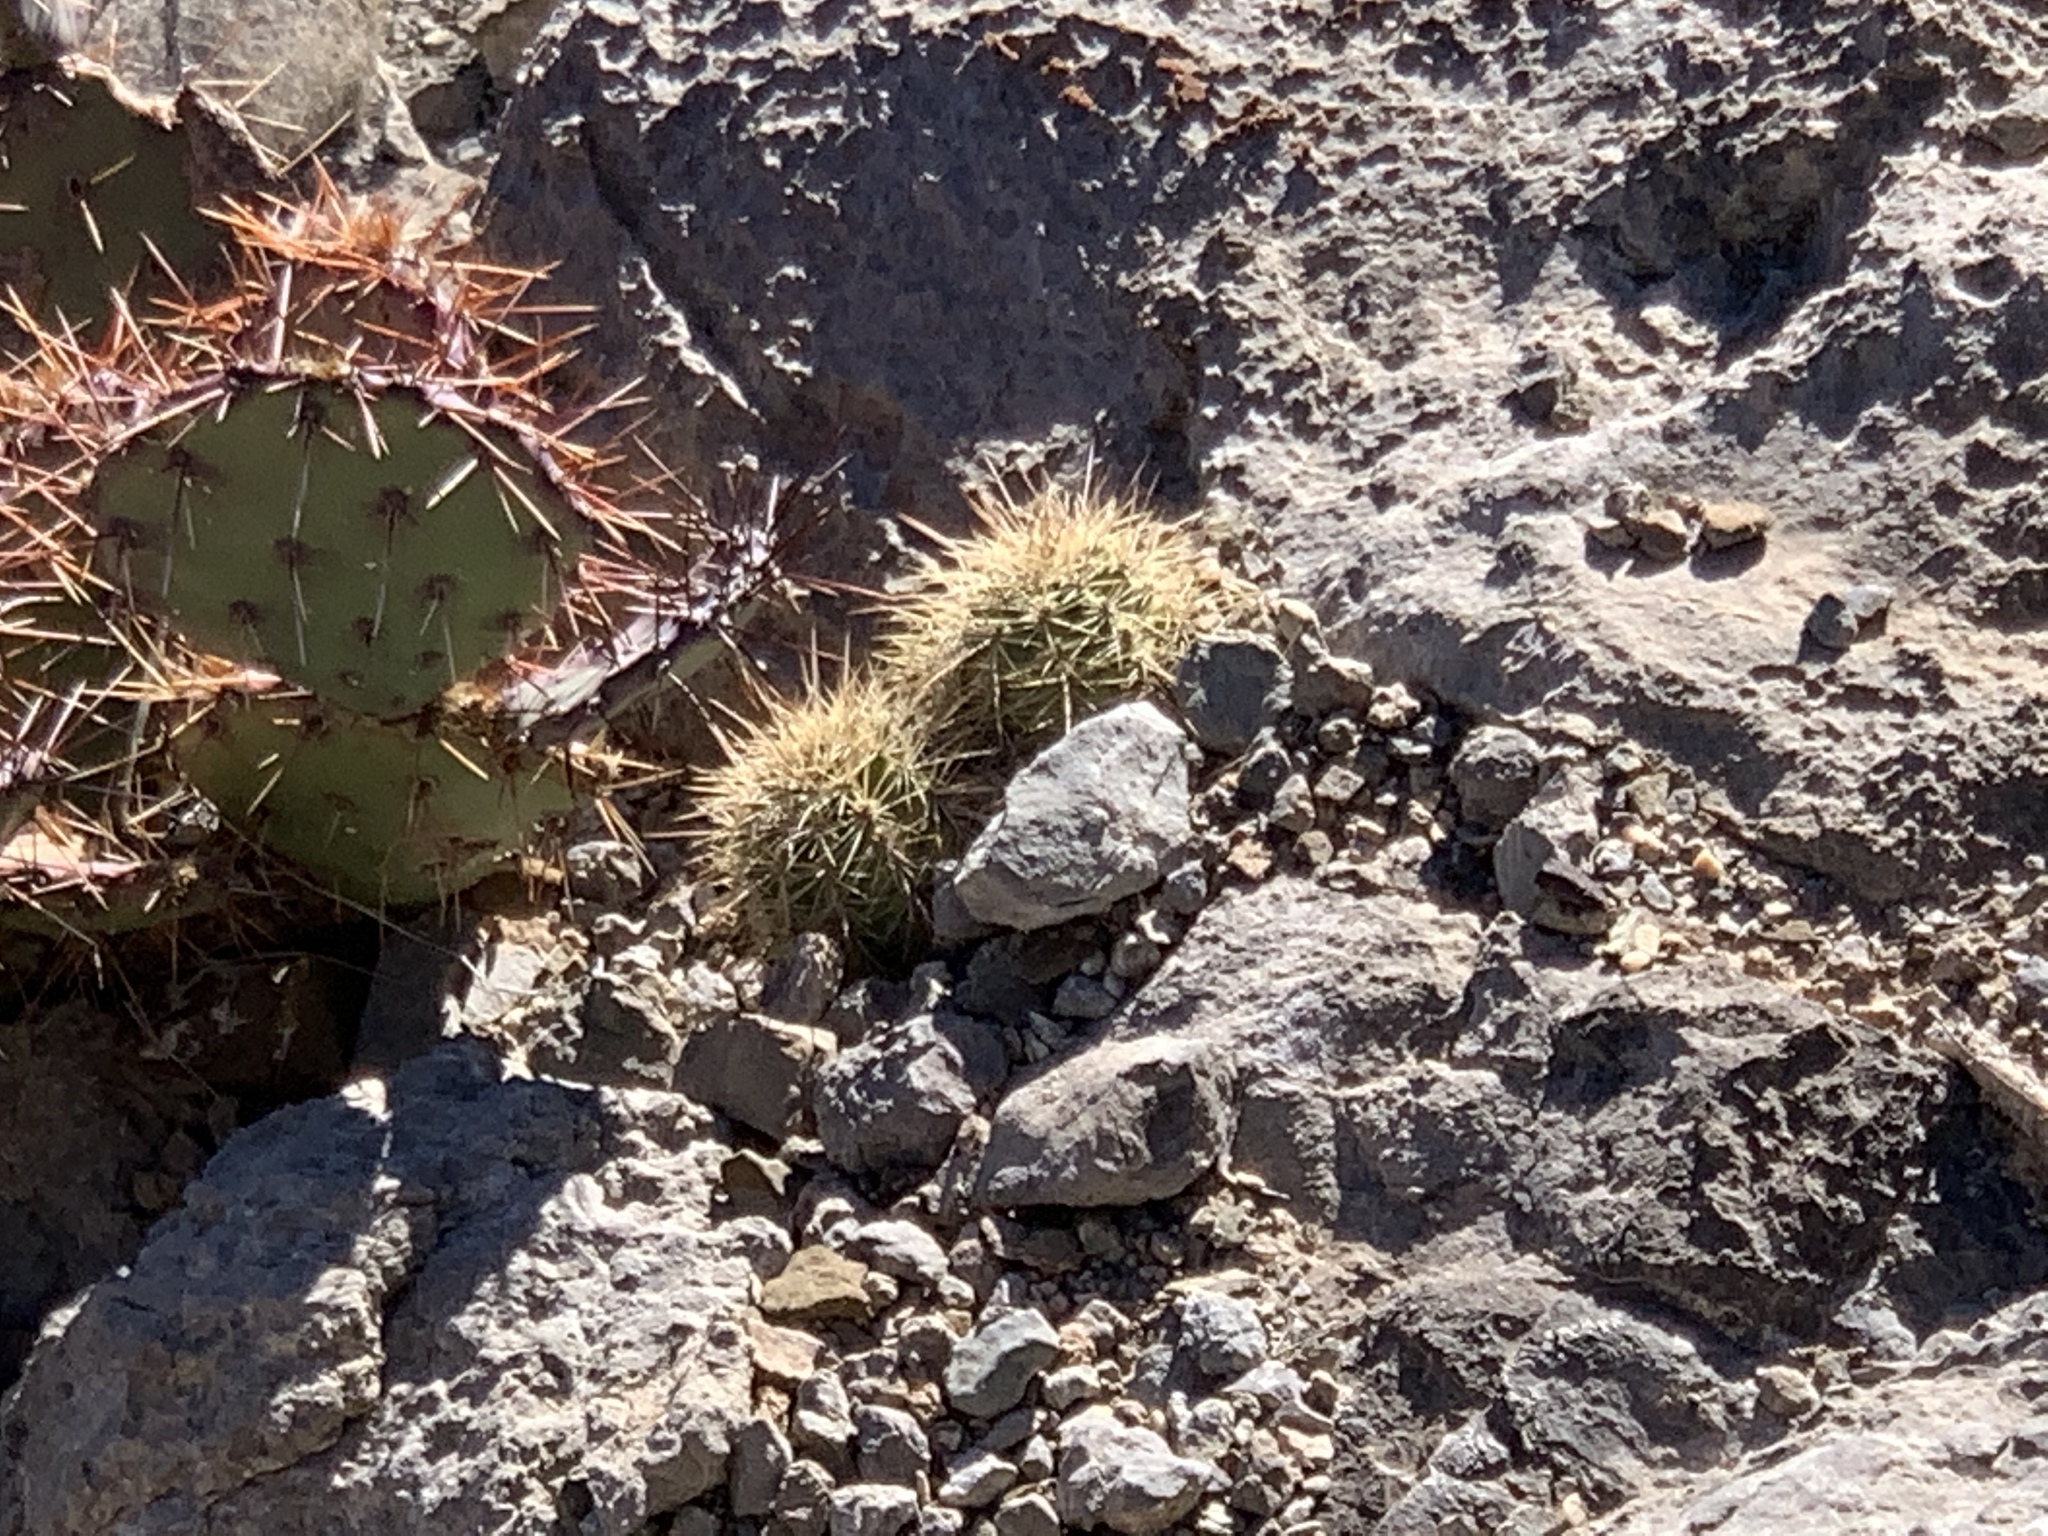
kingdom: Plantae
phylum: Tracheophyta
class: Magnoliopsida
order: Caryophyllales
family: Cactaceae
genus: Echinocereus
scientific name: Echinocereus coccineus
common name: Scarlet hedgehog cactus
